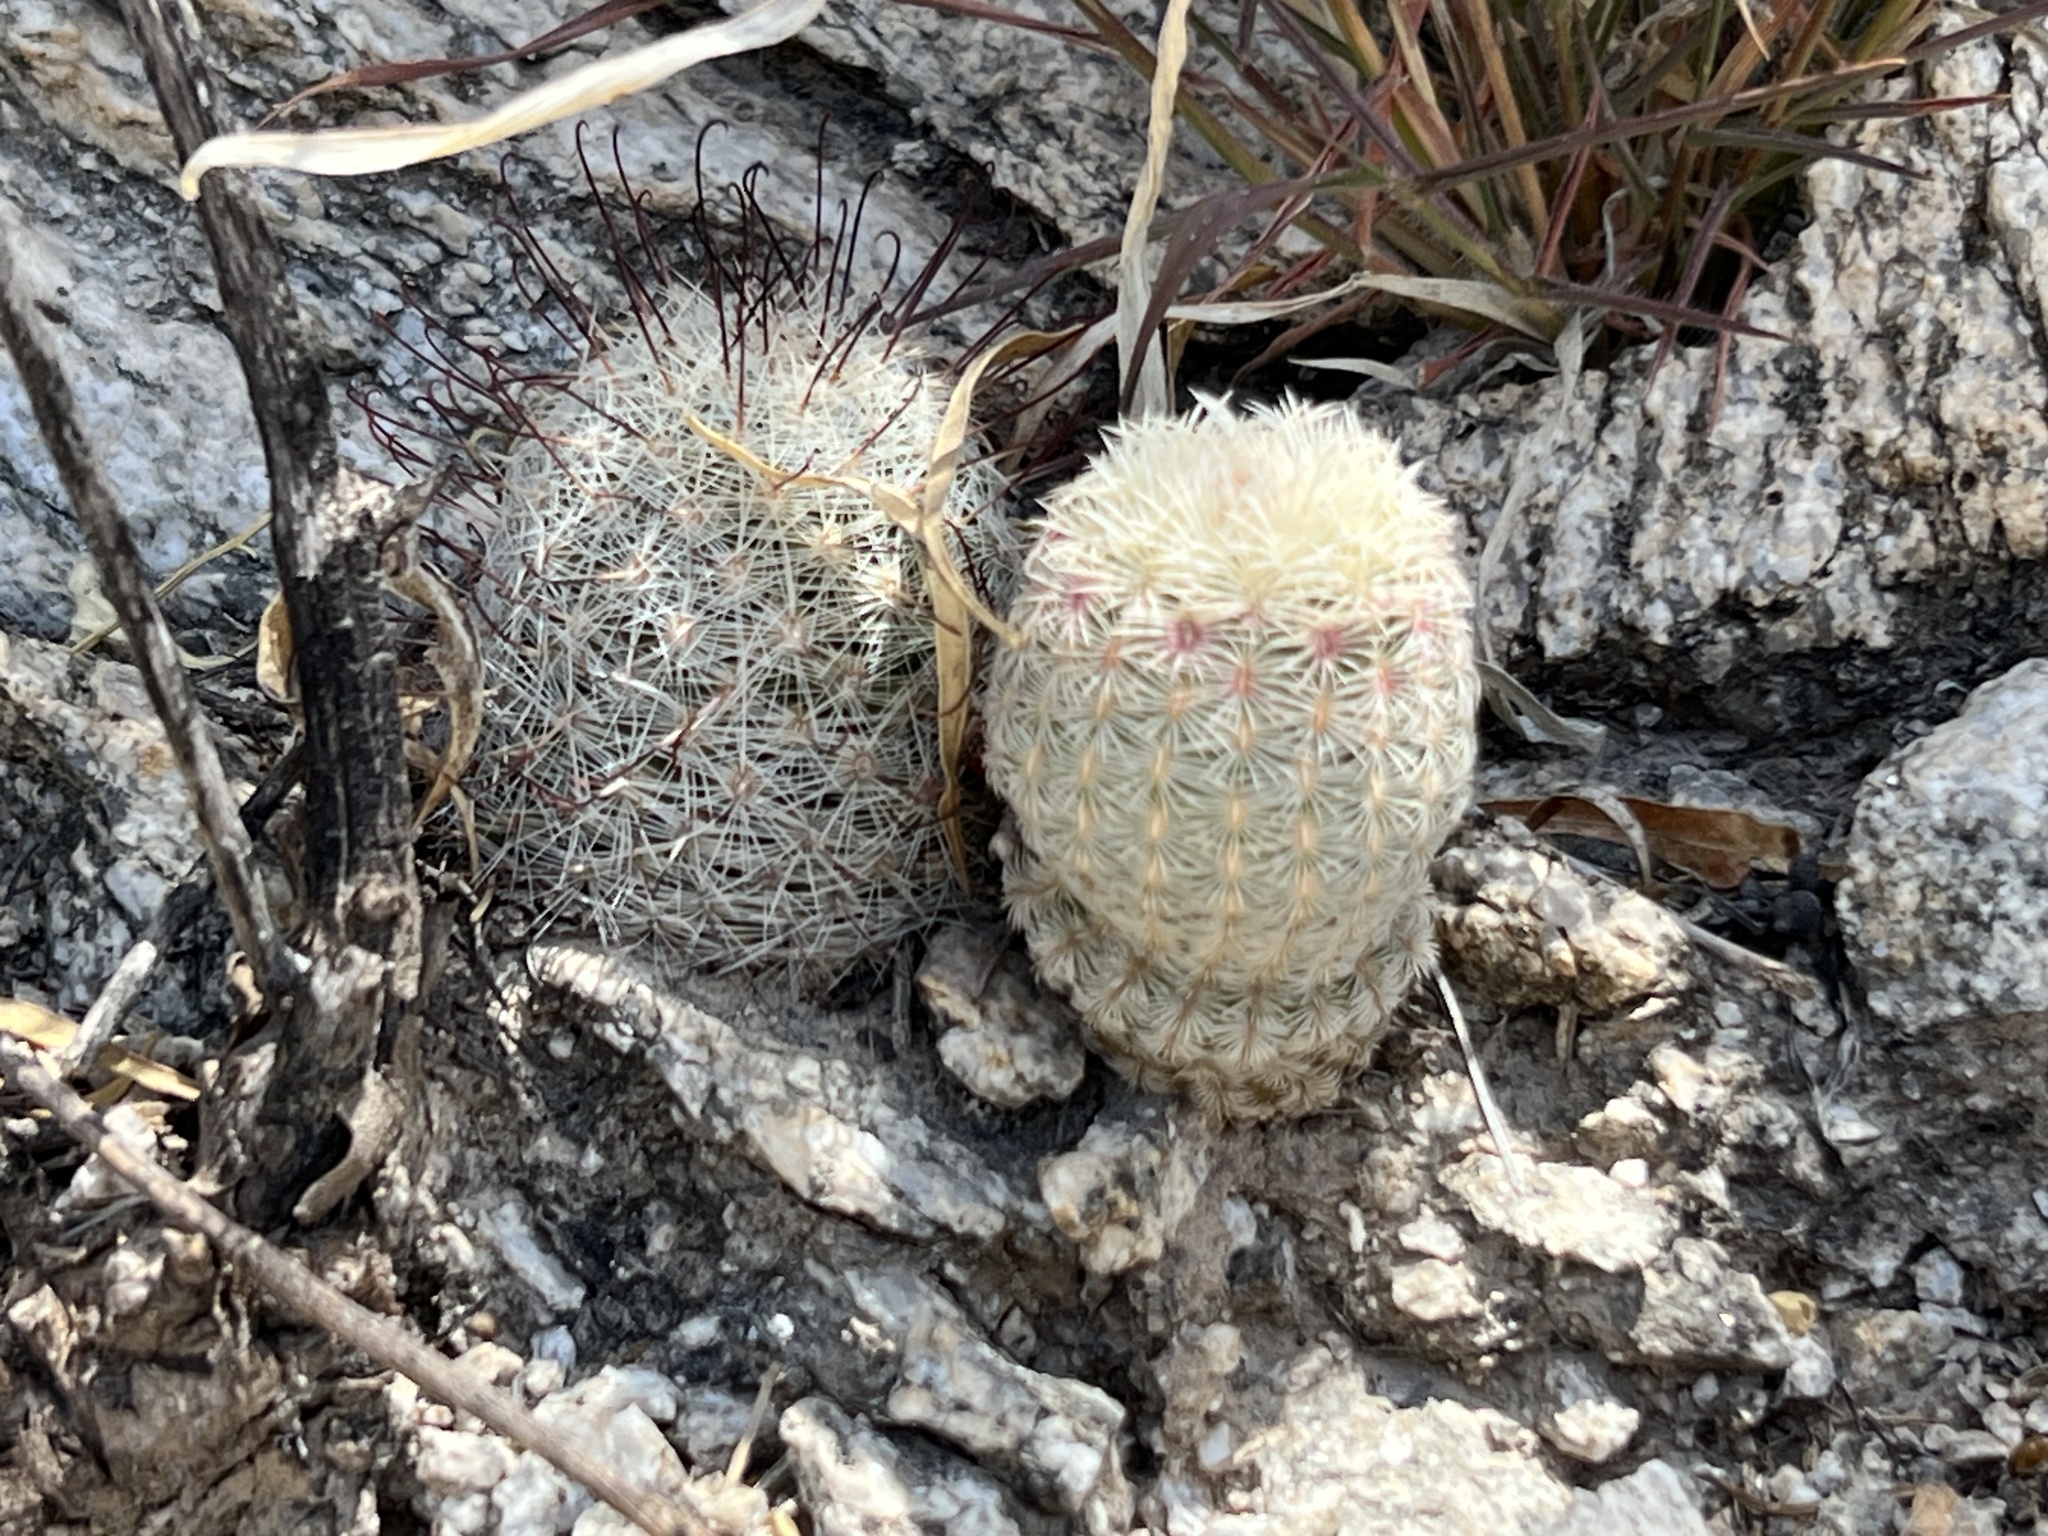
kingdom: Plantae
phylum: Tracheophyta
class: Magnoliopsida
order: Caryophyllales
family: Cactaceae
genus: Echinocereus
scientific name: Echinocereus rigidissimus
